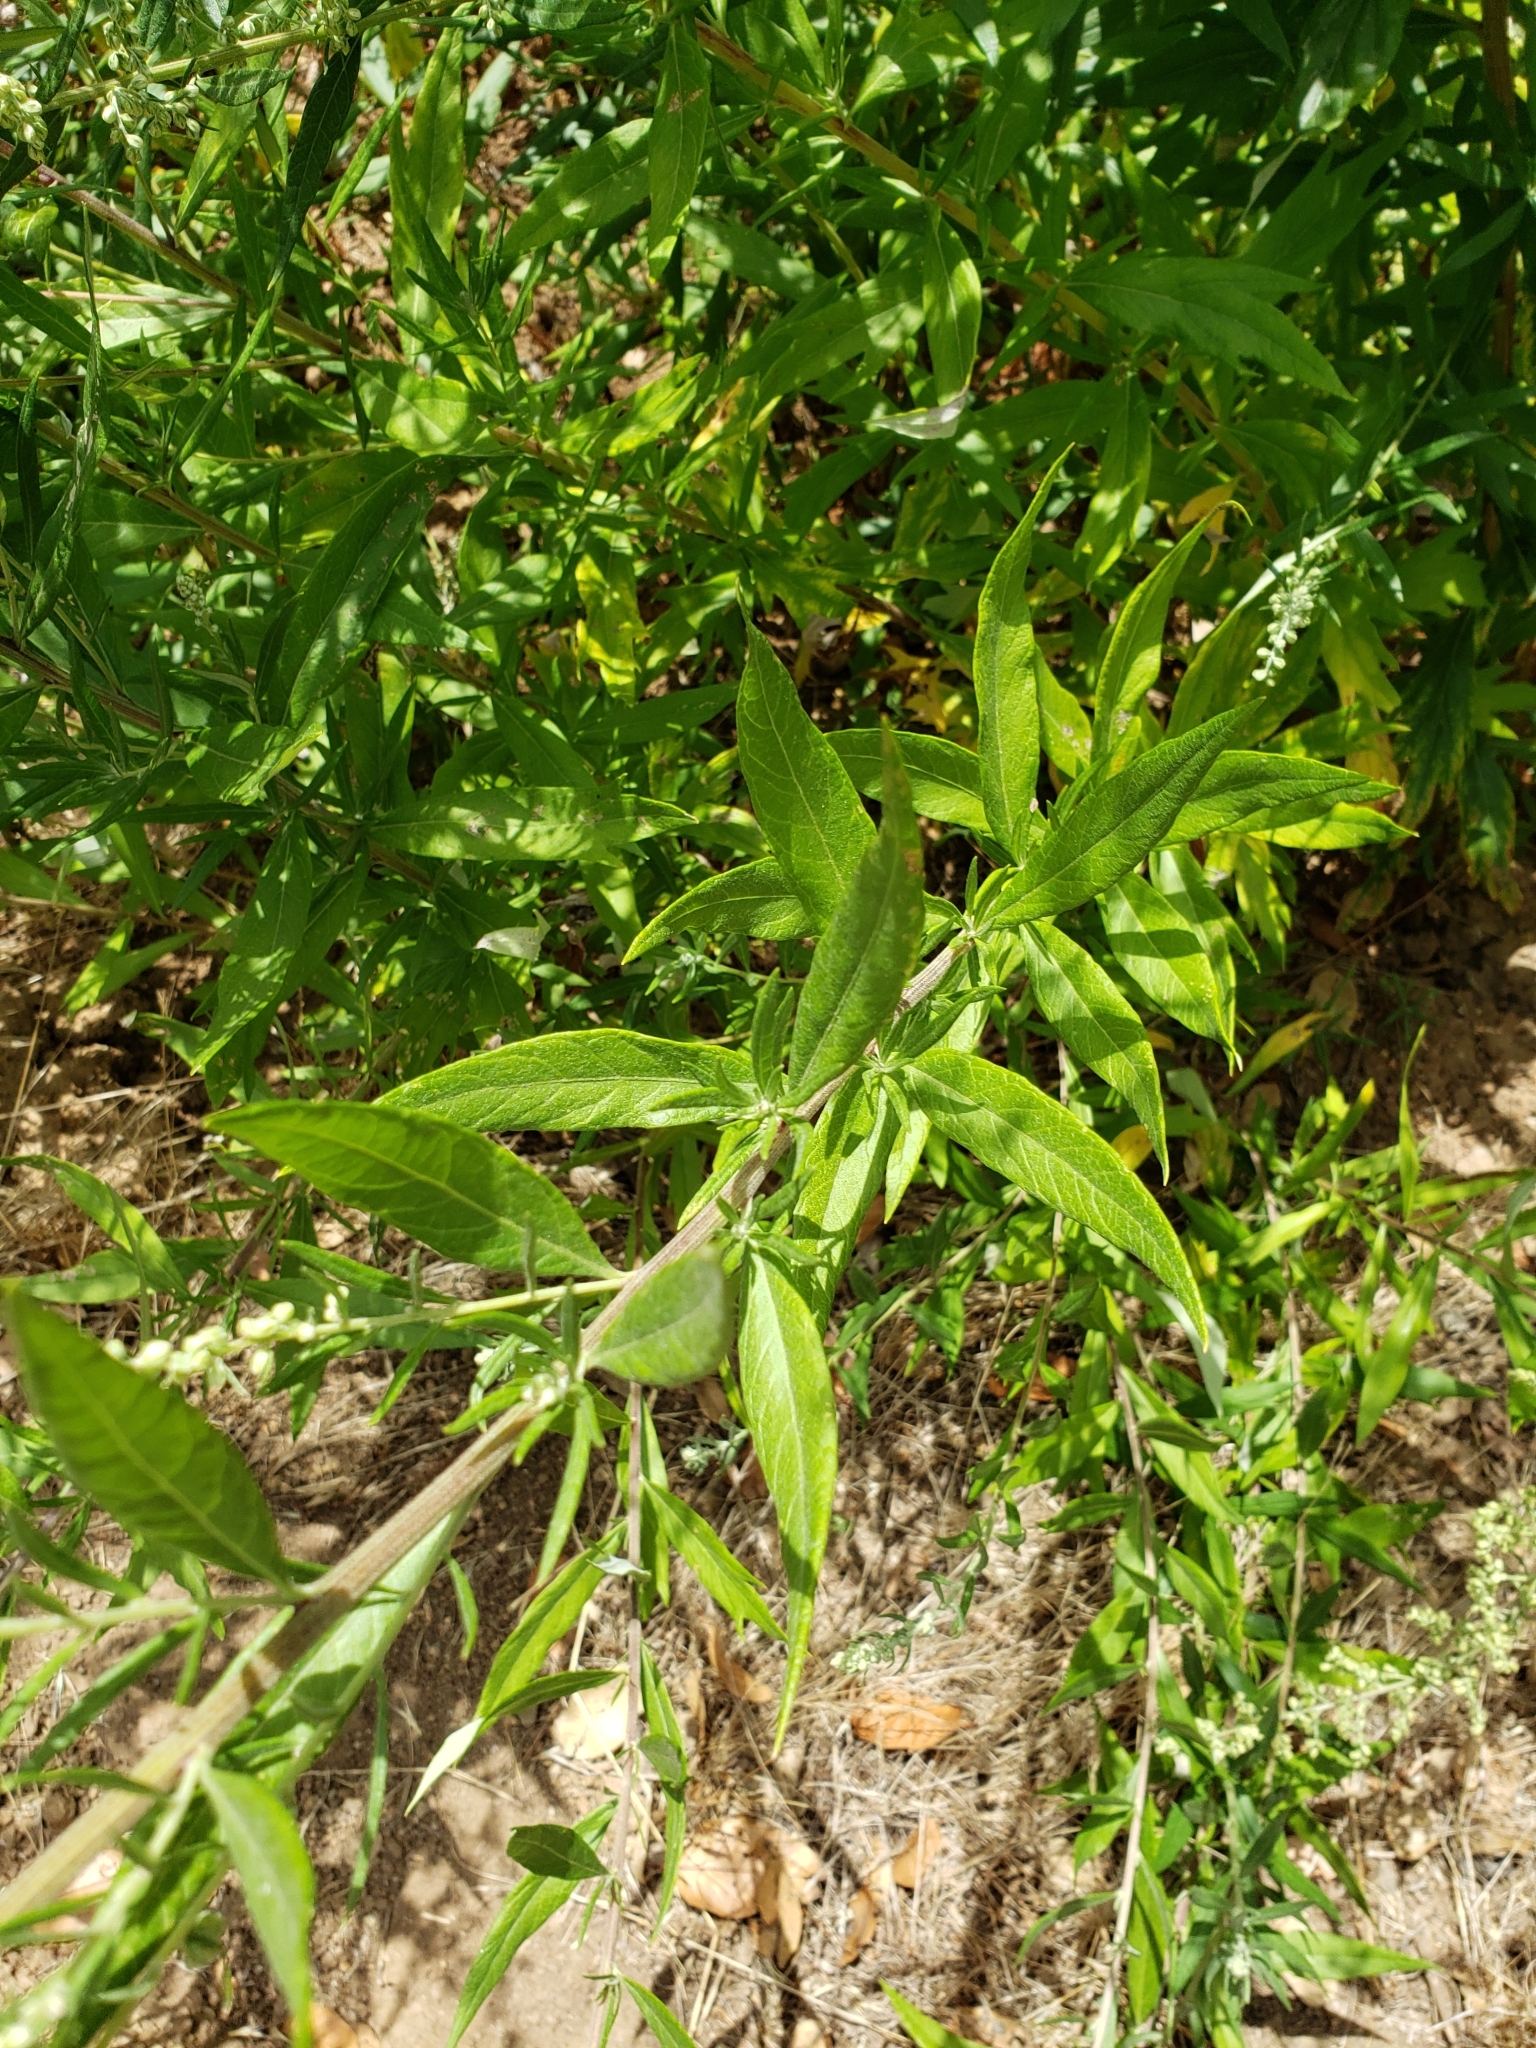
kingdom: Plantae
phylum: Tracheophyta
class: Magnoliopsida
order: Asterales
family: Asteraceae
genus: Artemisia
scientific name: Artemisia douglasiana
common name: Northwest mugwort
